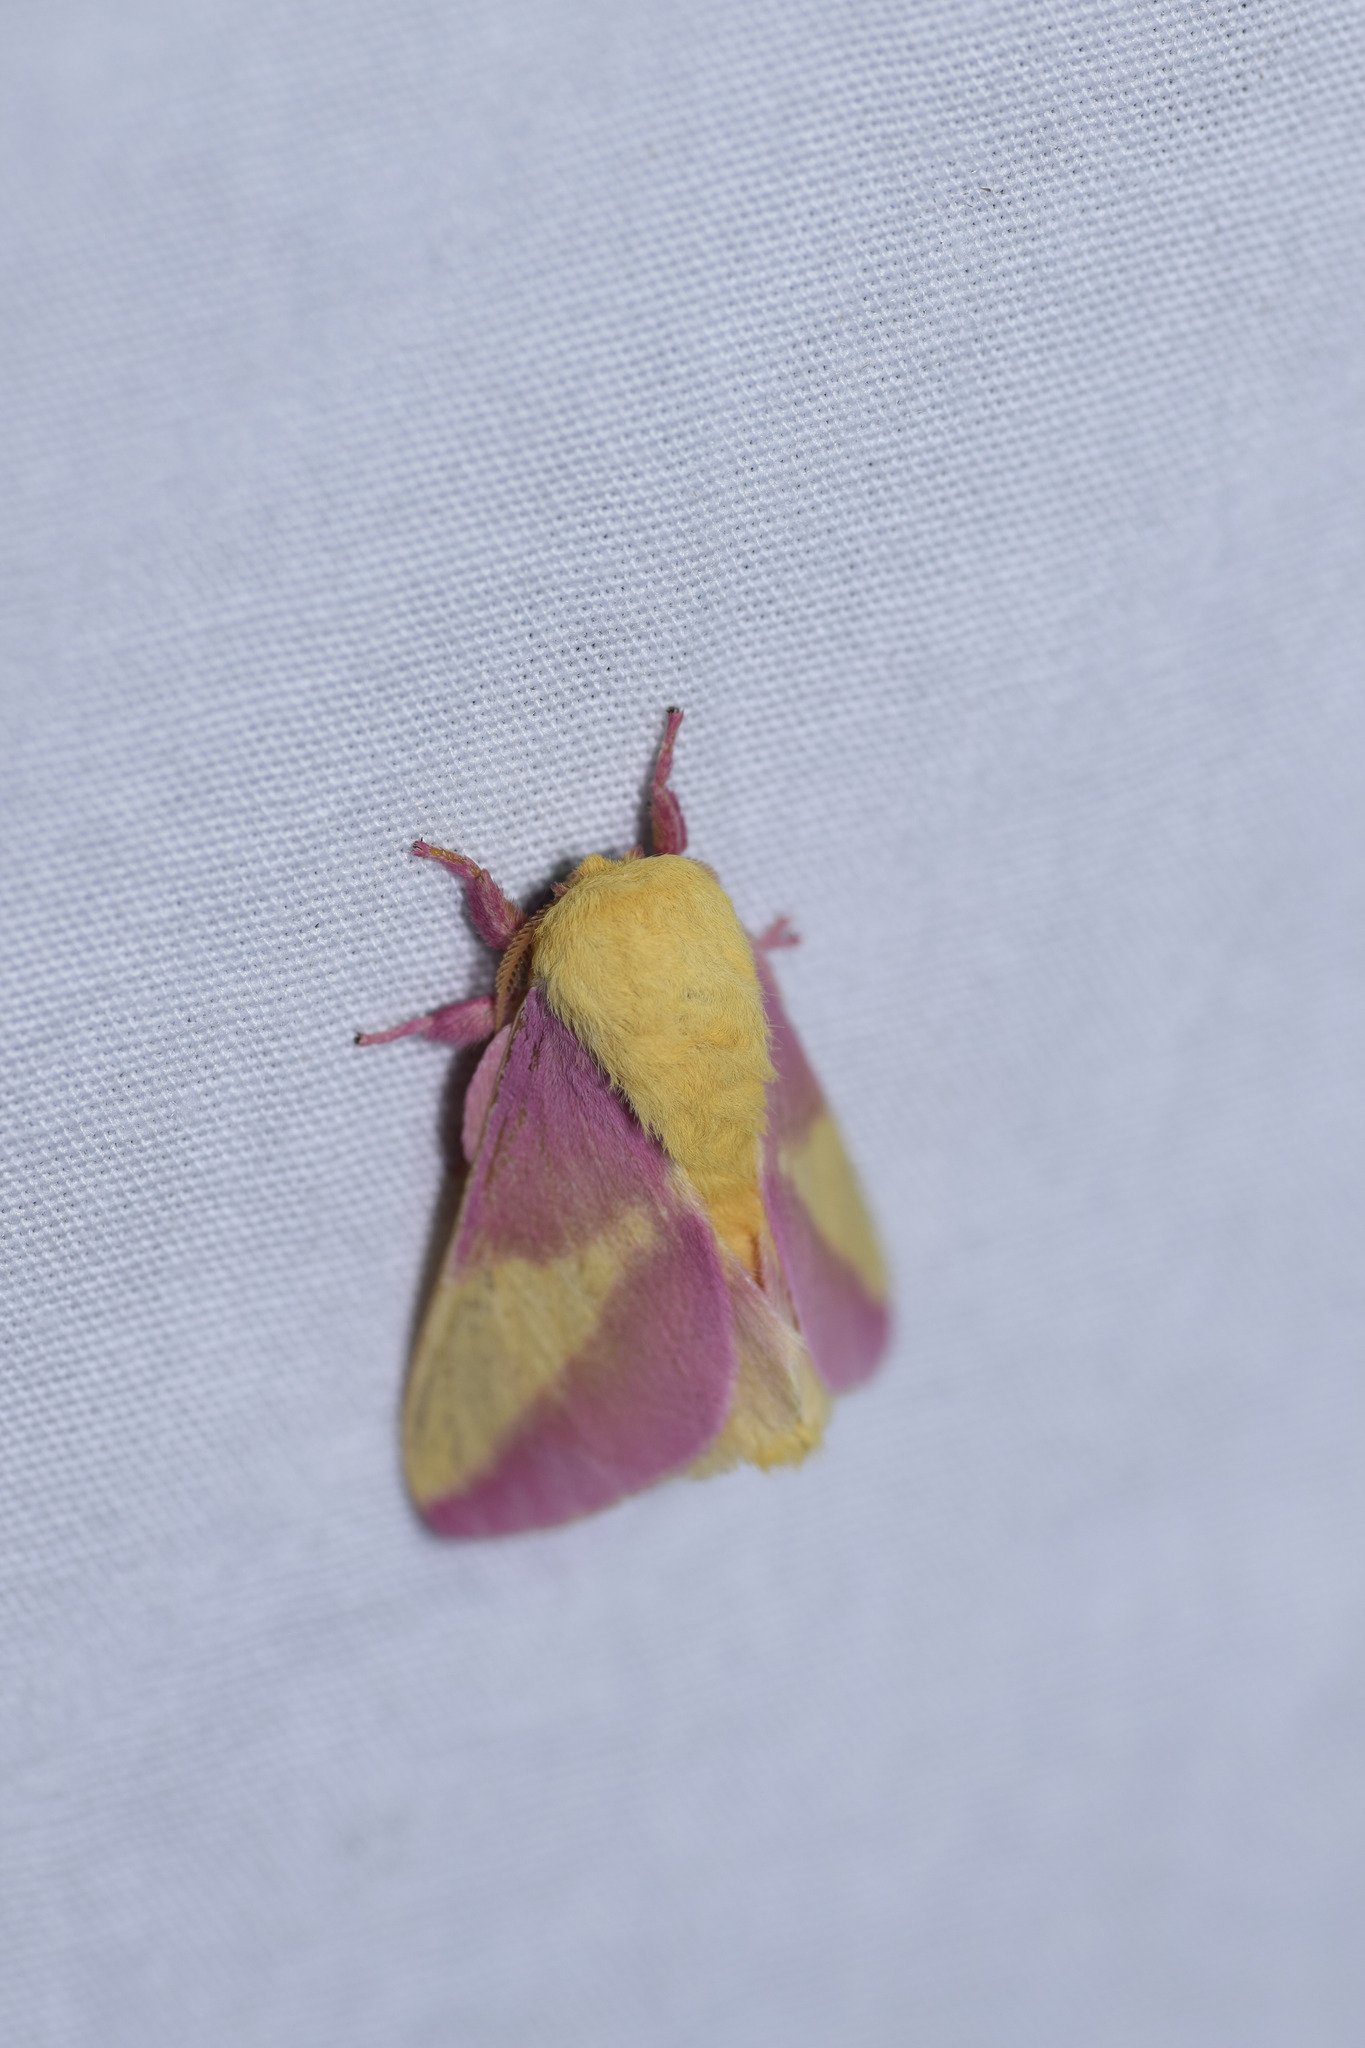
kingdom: Animalia
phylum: Arthropoda
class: Insecta
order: Lepidoptera
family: Saturniidae
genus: Dryocampa
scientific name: Dryocampa rubicunda
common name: Rosy maple moth
